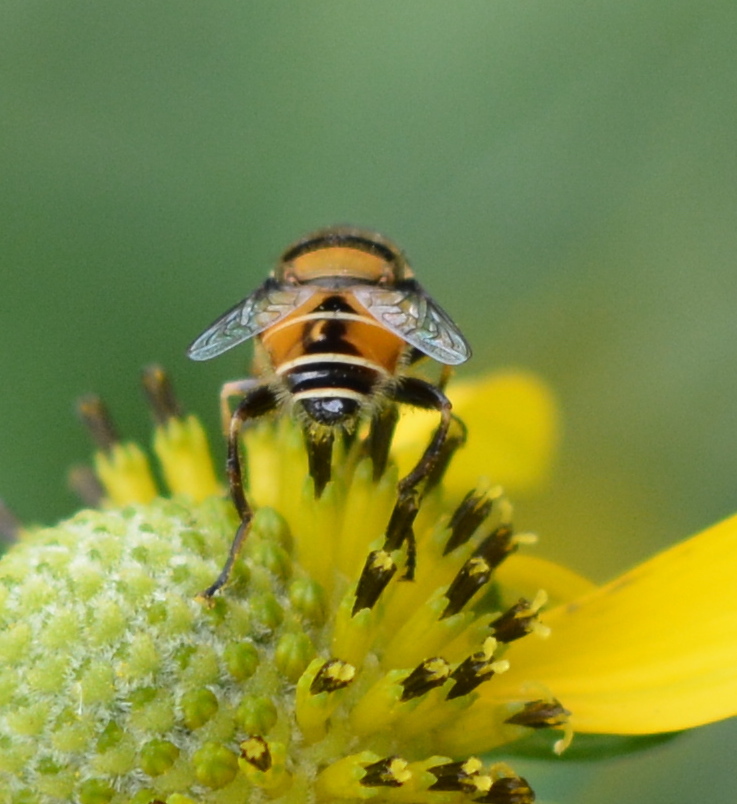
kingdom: Animalia
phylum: Arthropoda
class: Insecta
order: Diptera
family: Syrphidae
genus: Palpada
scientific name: Palpada pusilla
